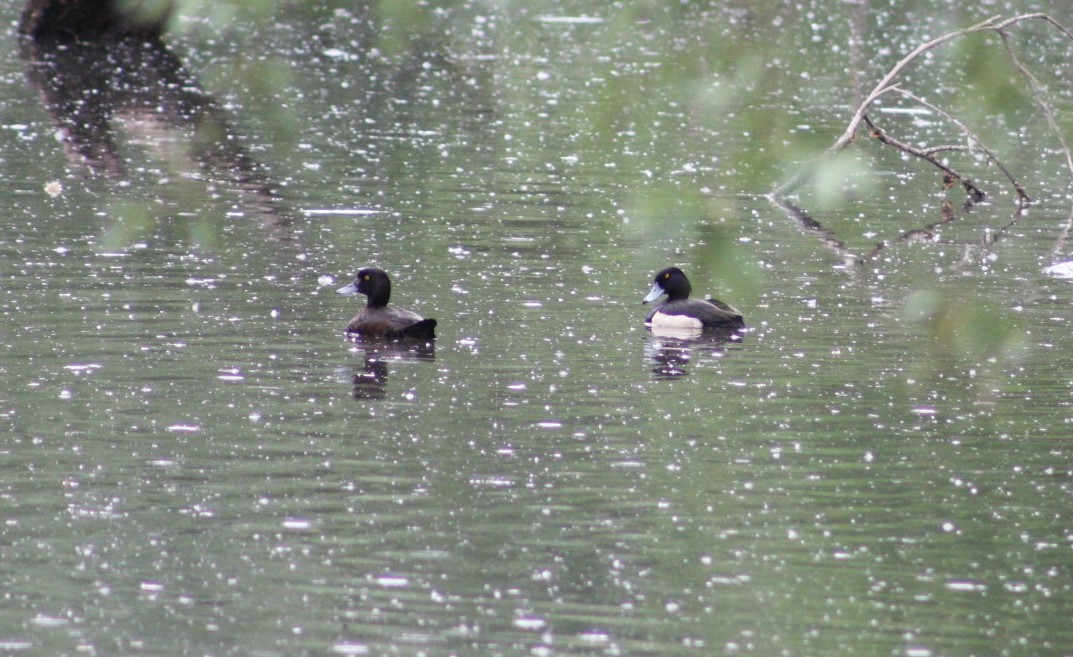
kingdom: Animalia
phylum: Chordata
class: Aves
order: Anseriformes
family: Anatidae
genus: Aythya
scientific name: Aythya fuligula
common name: Tufted duck
